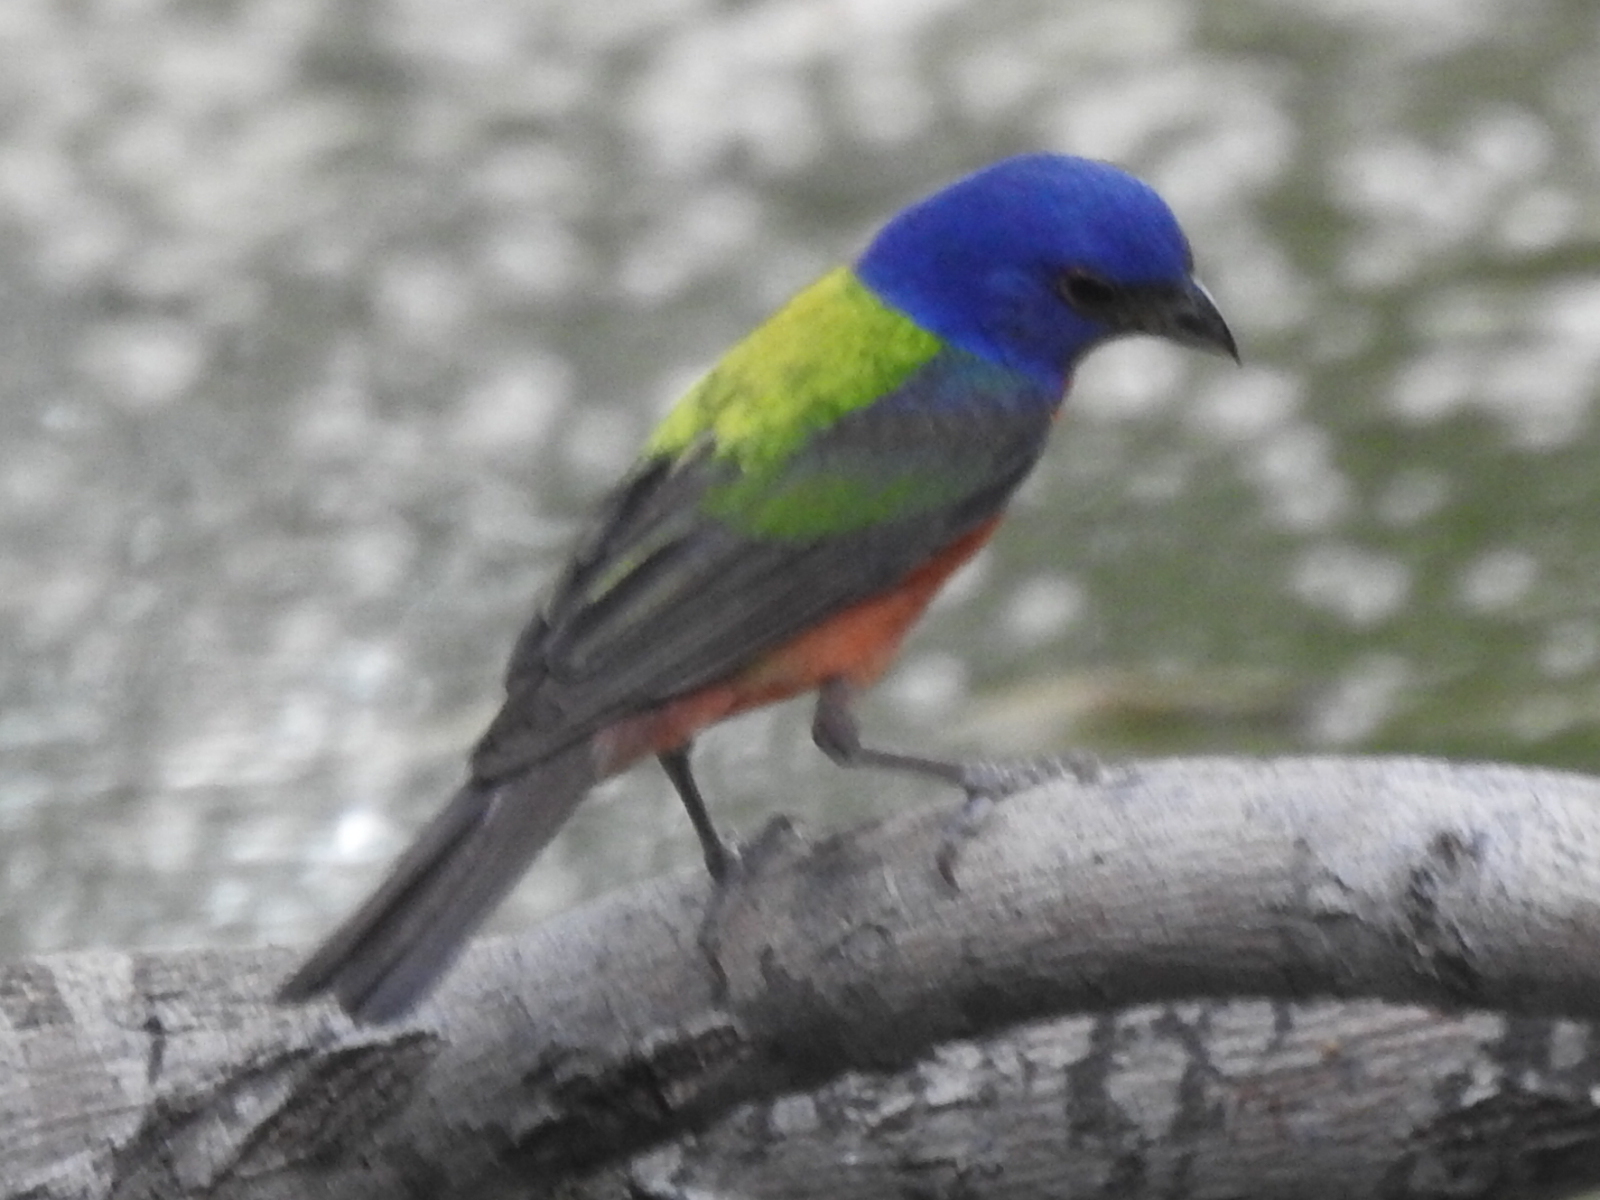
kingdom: Animalia
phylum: Chordata
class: Aves
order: Passeriformes
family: Cardinalidae
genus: Passerina
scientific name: Passerina ciris
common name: Painted bunting
